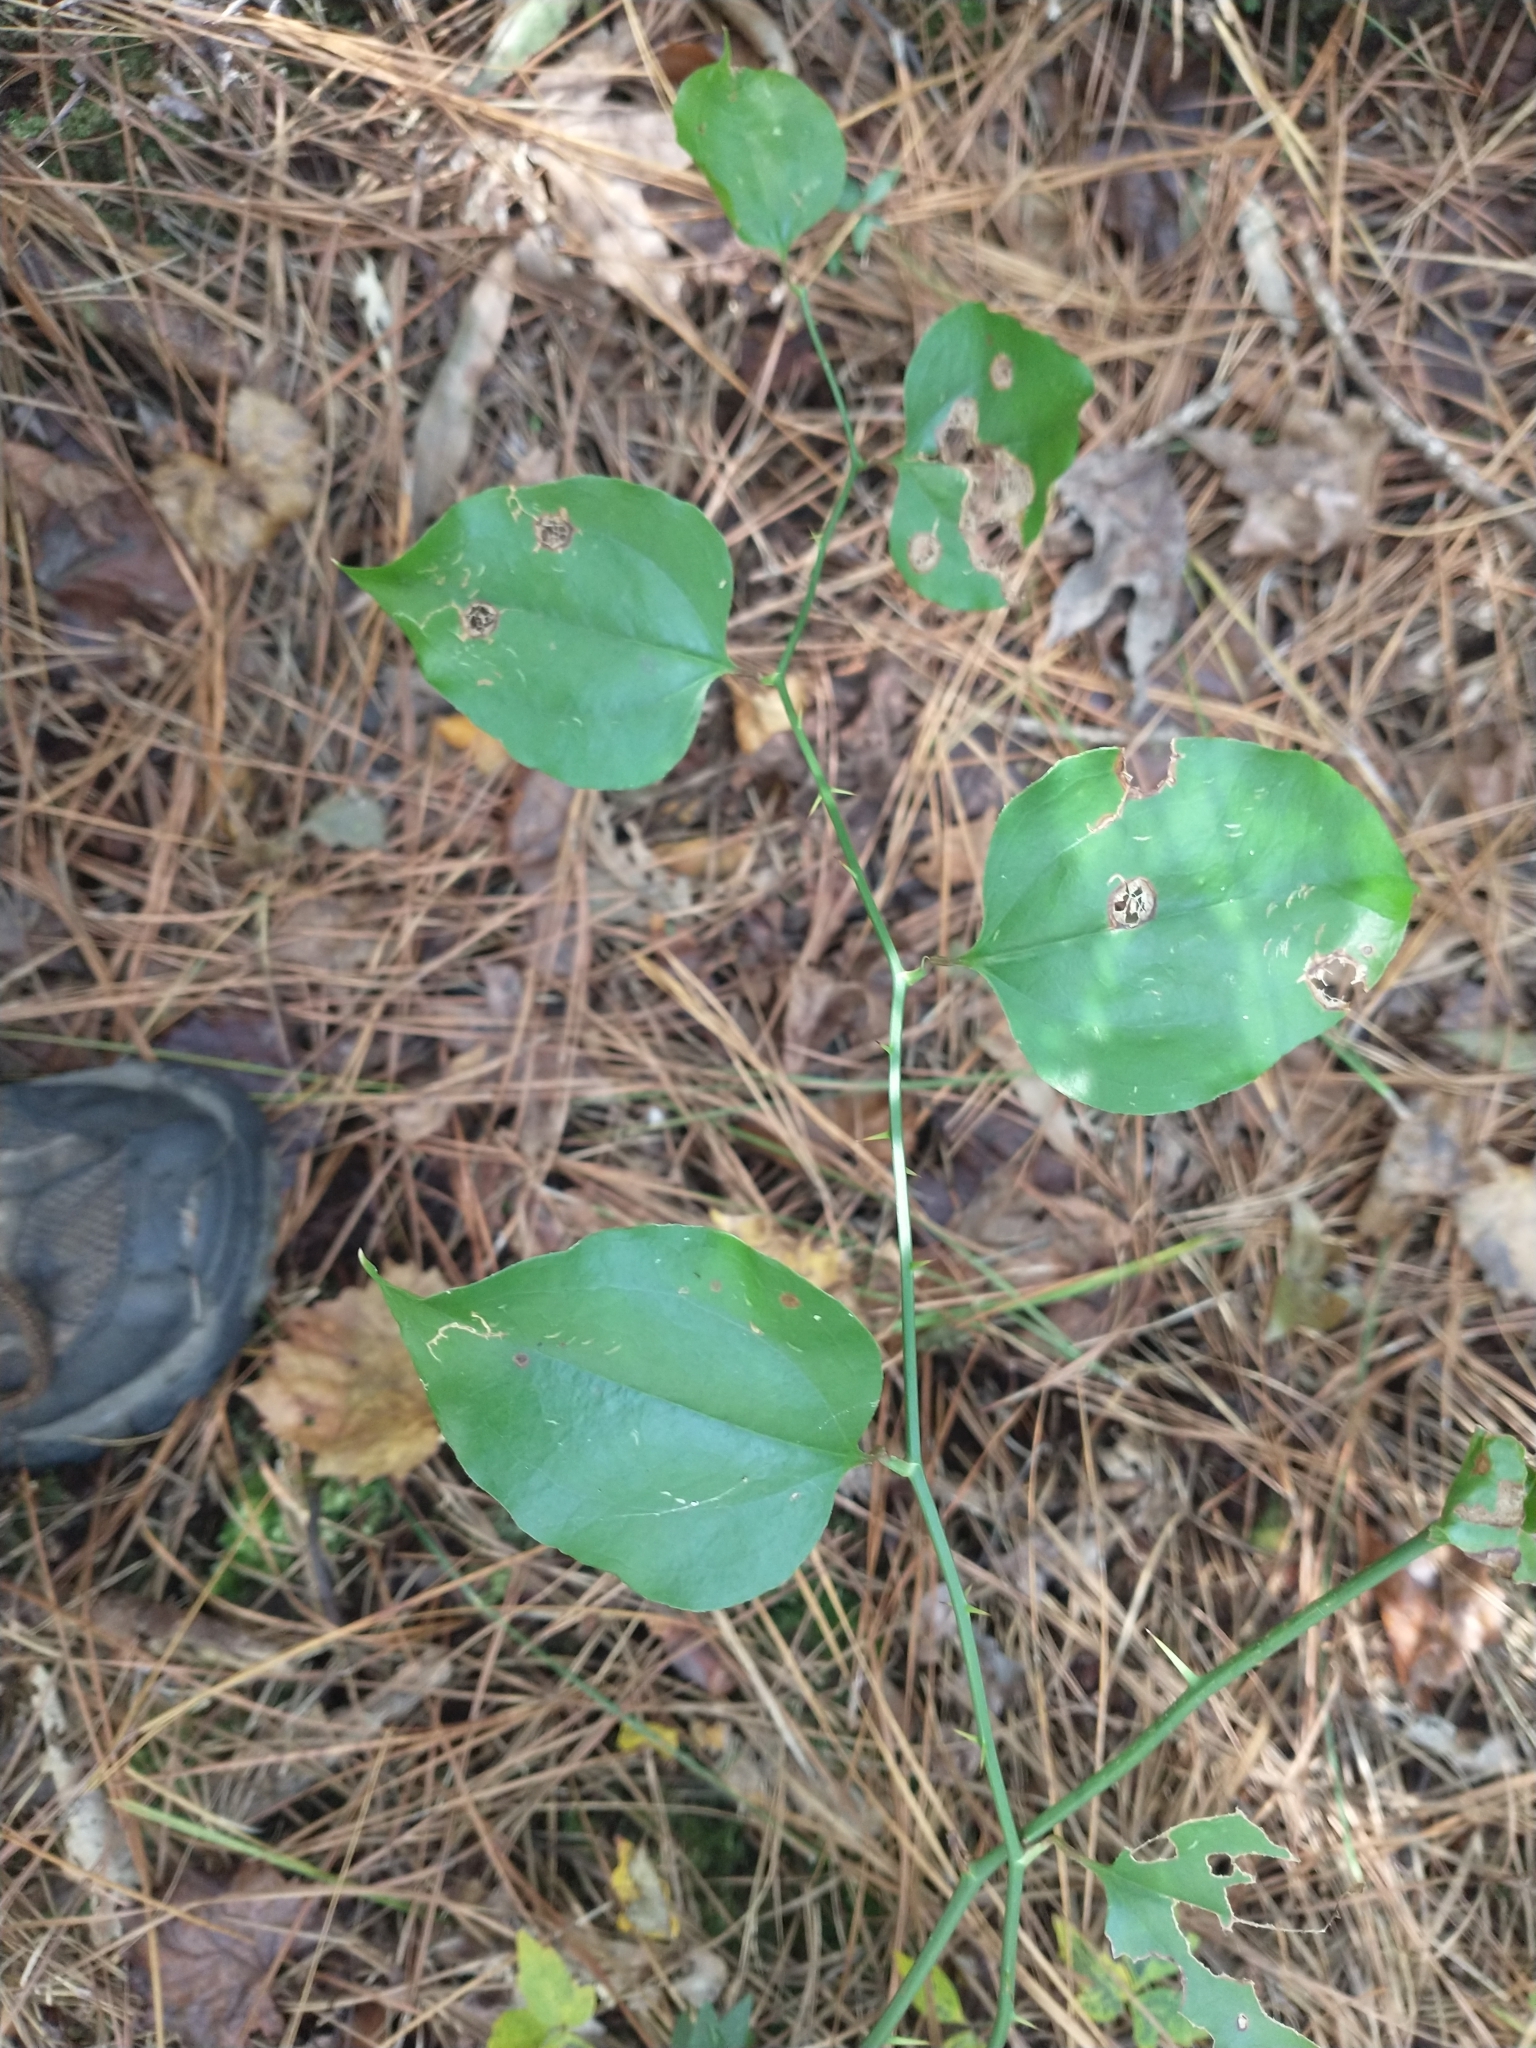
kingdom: Plantae
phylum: Tracheophyta
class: Liliopsida
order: Liliales
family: Smilacaceae
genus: Smilax
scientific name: Smilax rotundifolia
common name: Bullbriar
